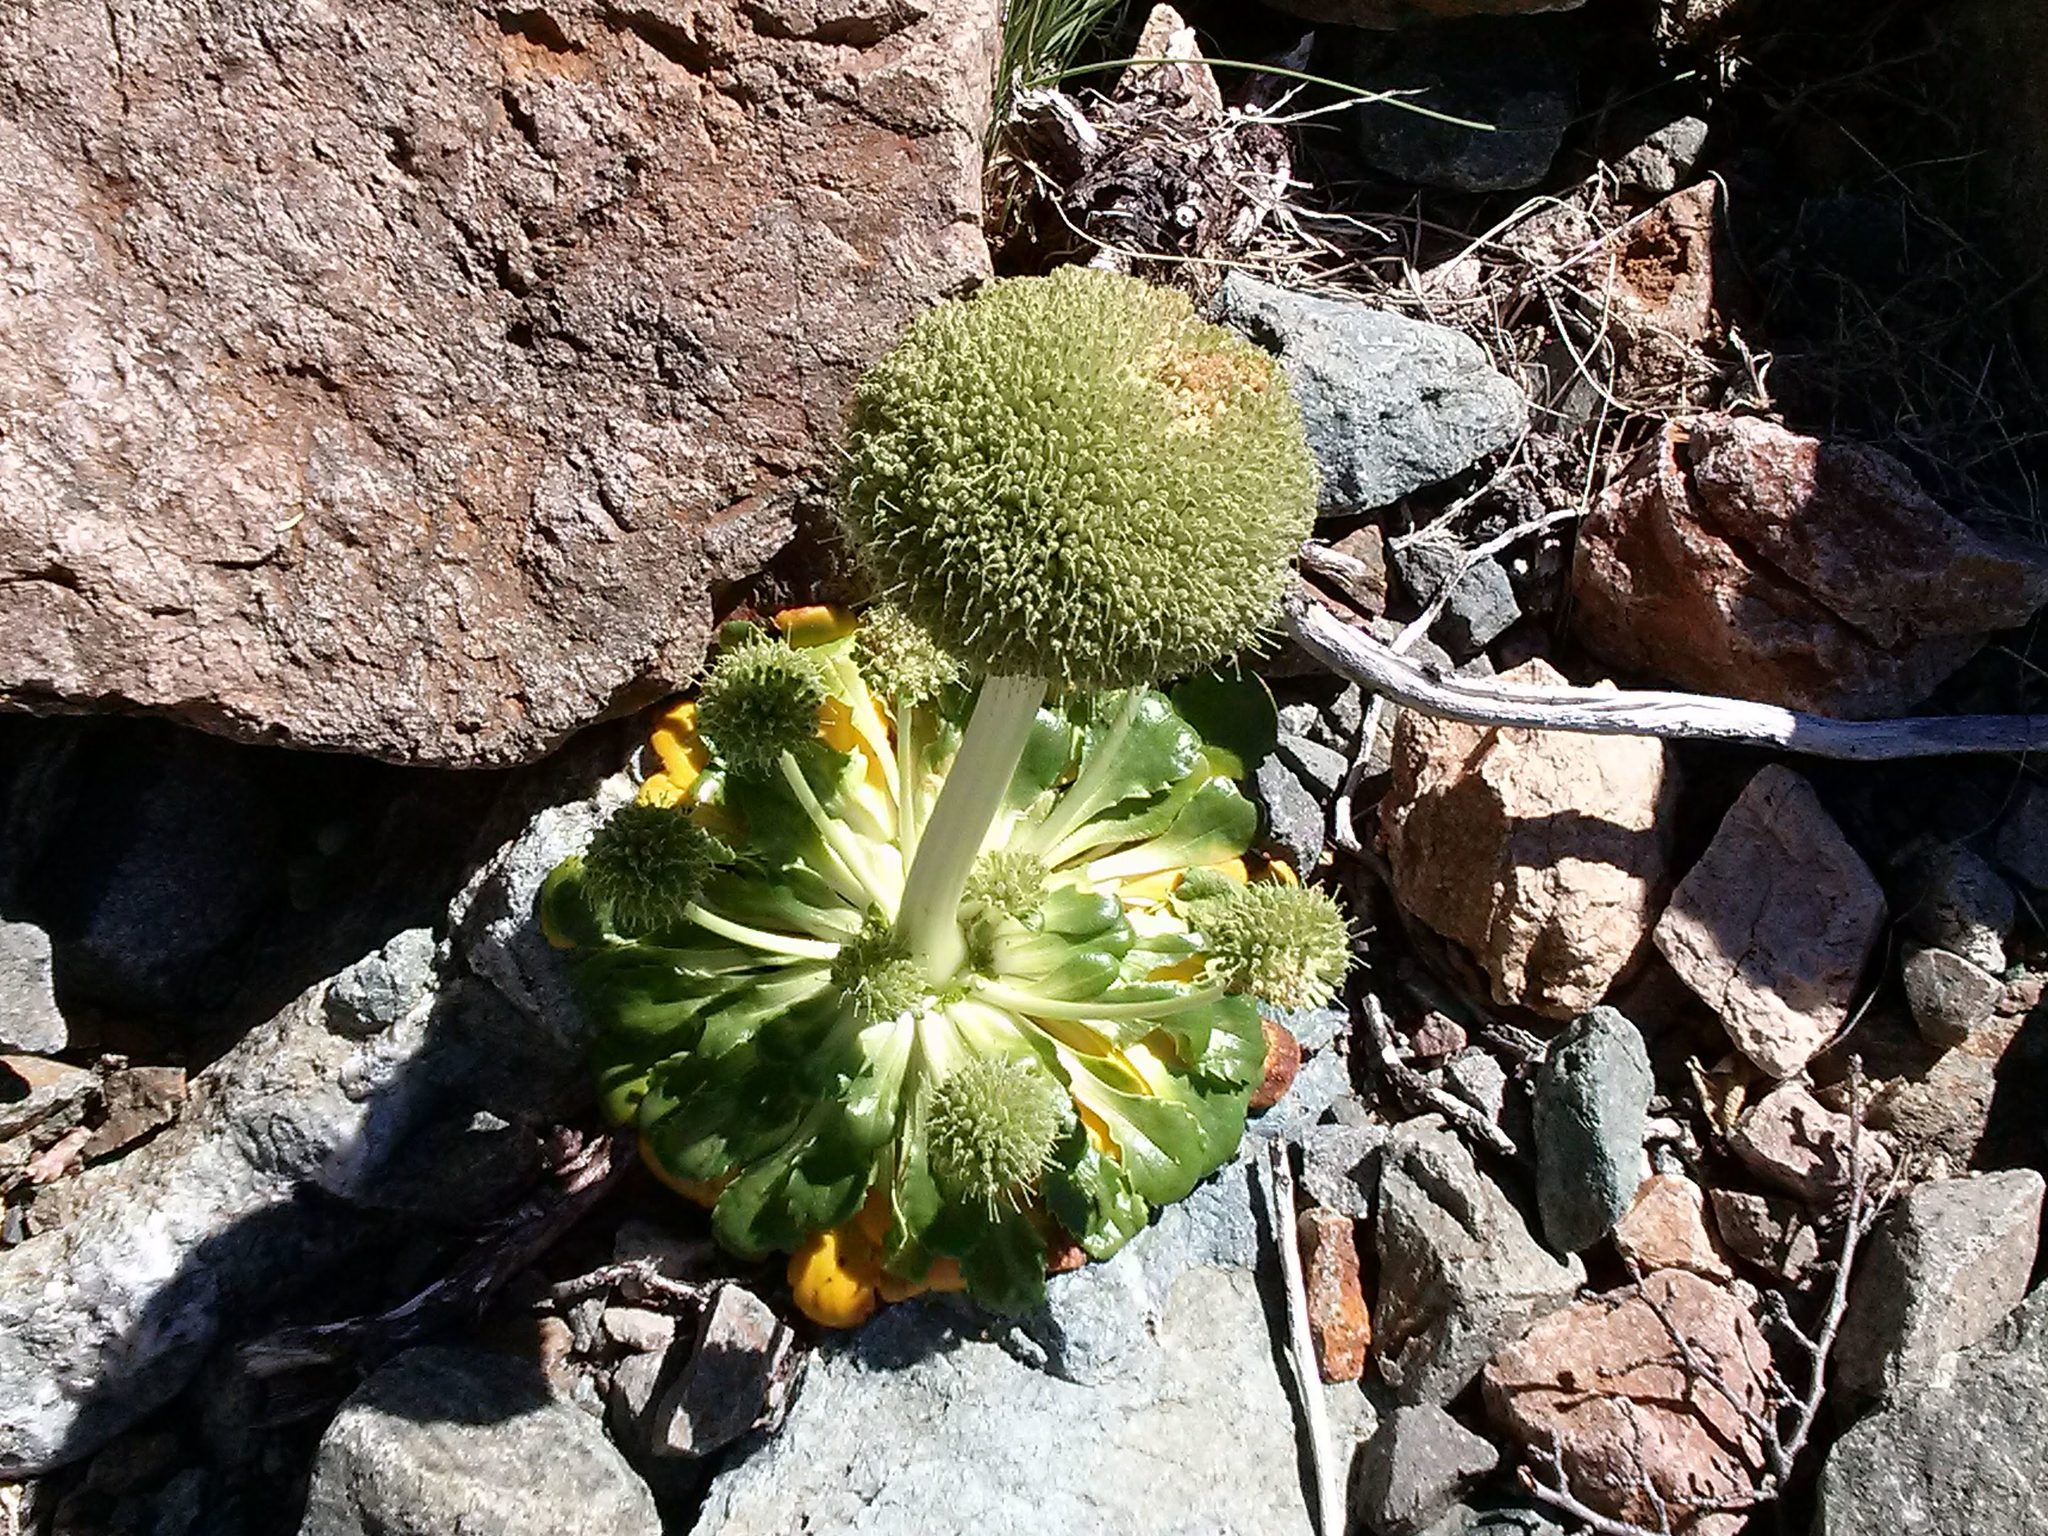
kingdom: Plantae
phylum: Tracheophyta
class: Magnoliopsida
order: Asterales
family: Calyceraceae
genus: Gamocarpha
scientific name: Gamocarpha macrocephala
